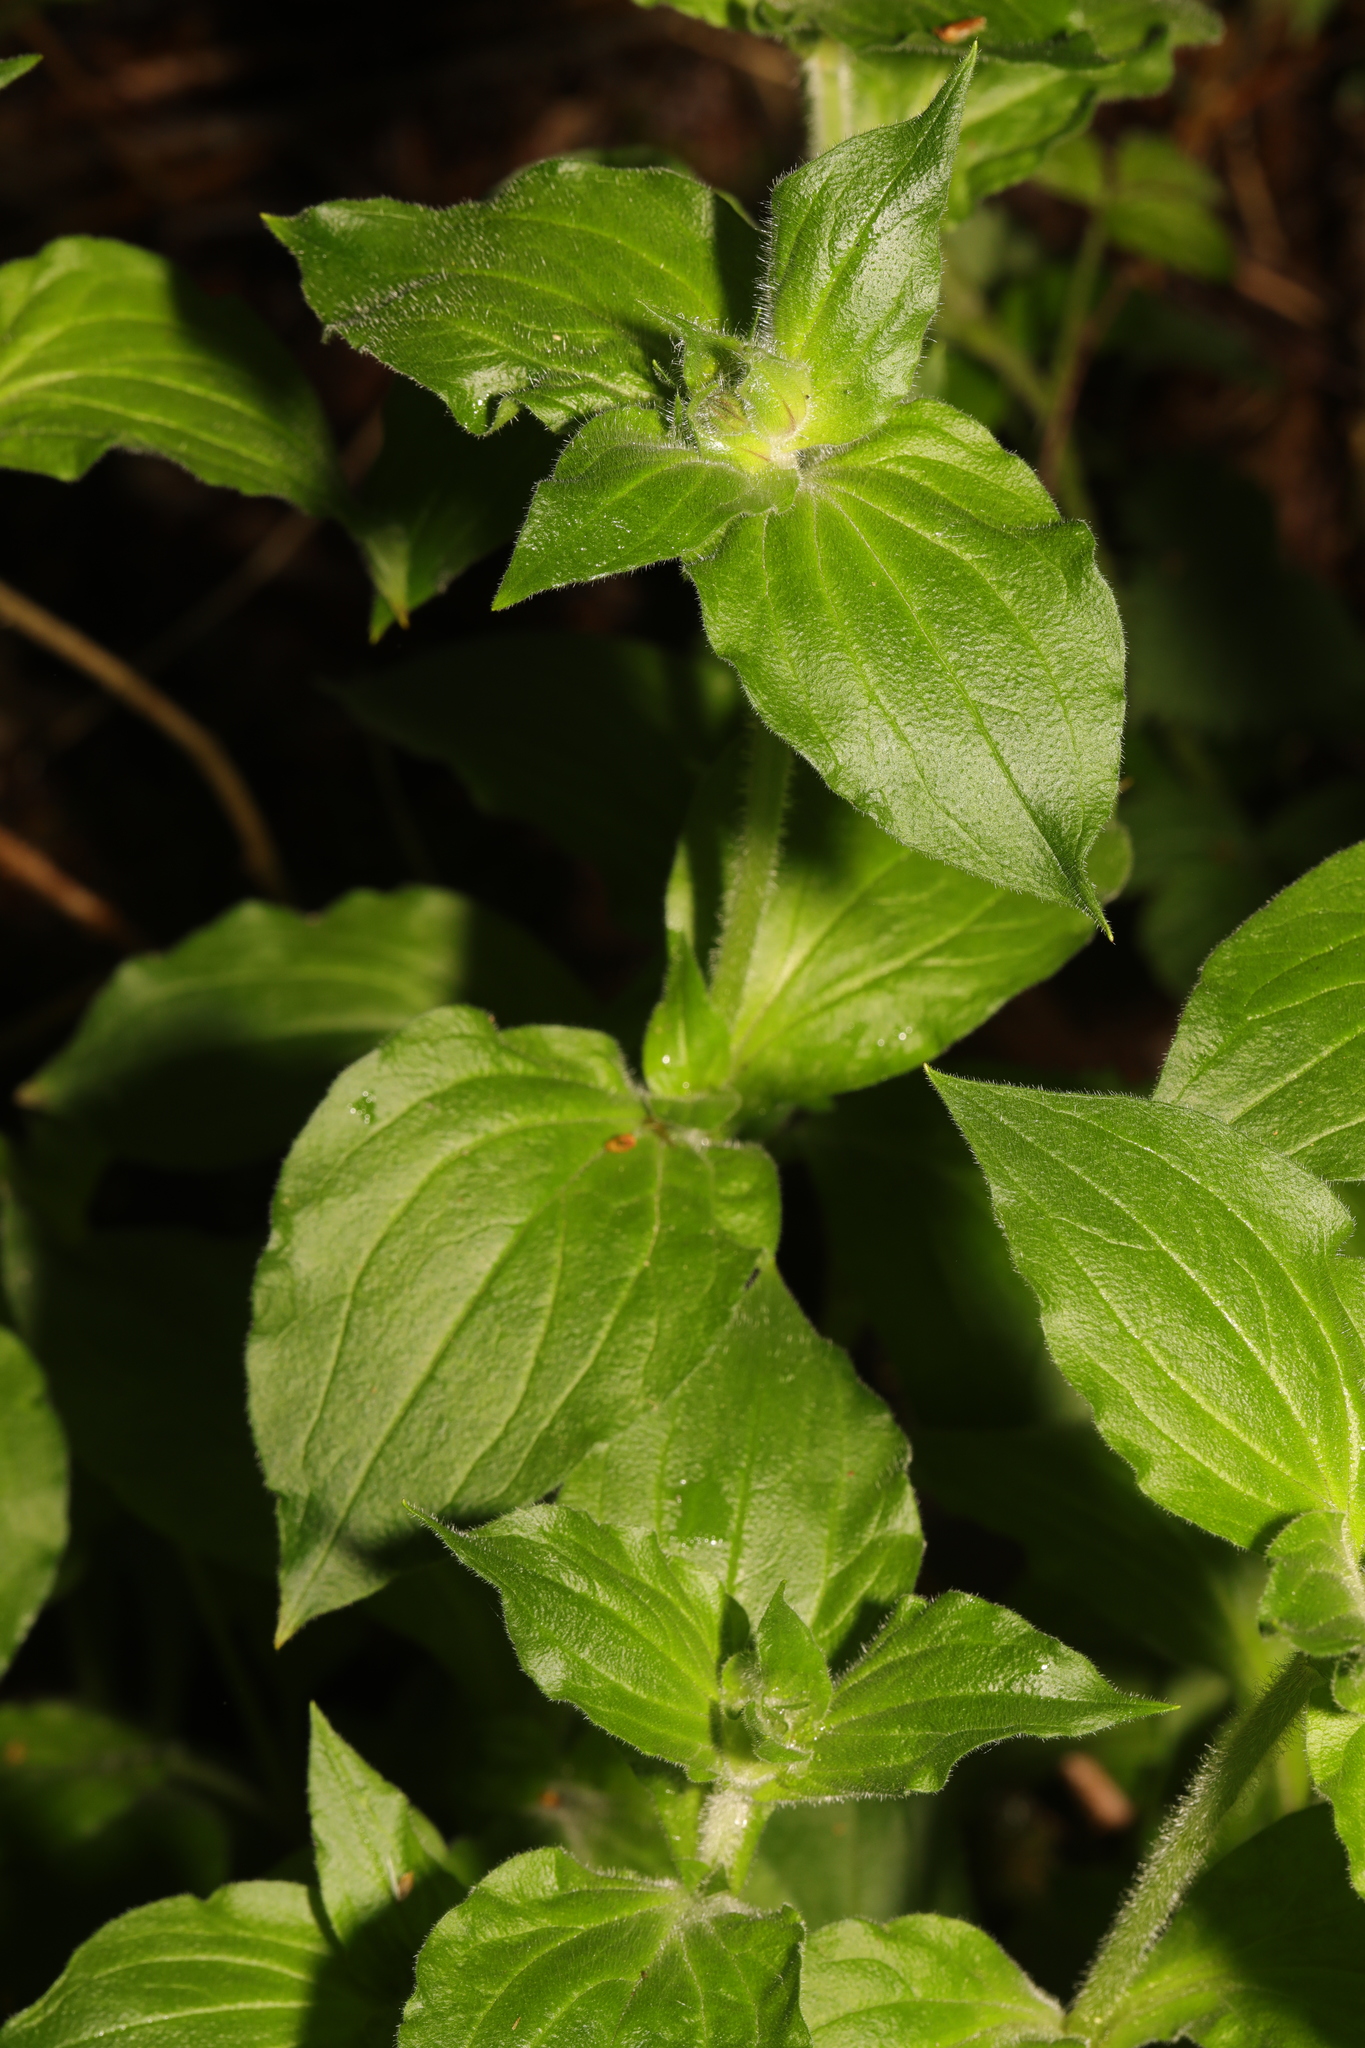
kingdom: Plantae
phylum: Tracheophyta
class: Magnoliopsida
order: Caryophyllales
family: Caryophyllaceae
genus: Silene
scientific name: Silene dioica
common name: Red campion
